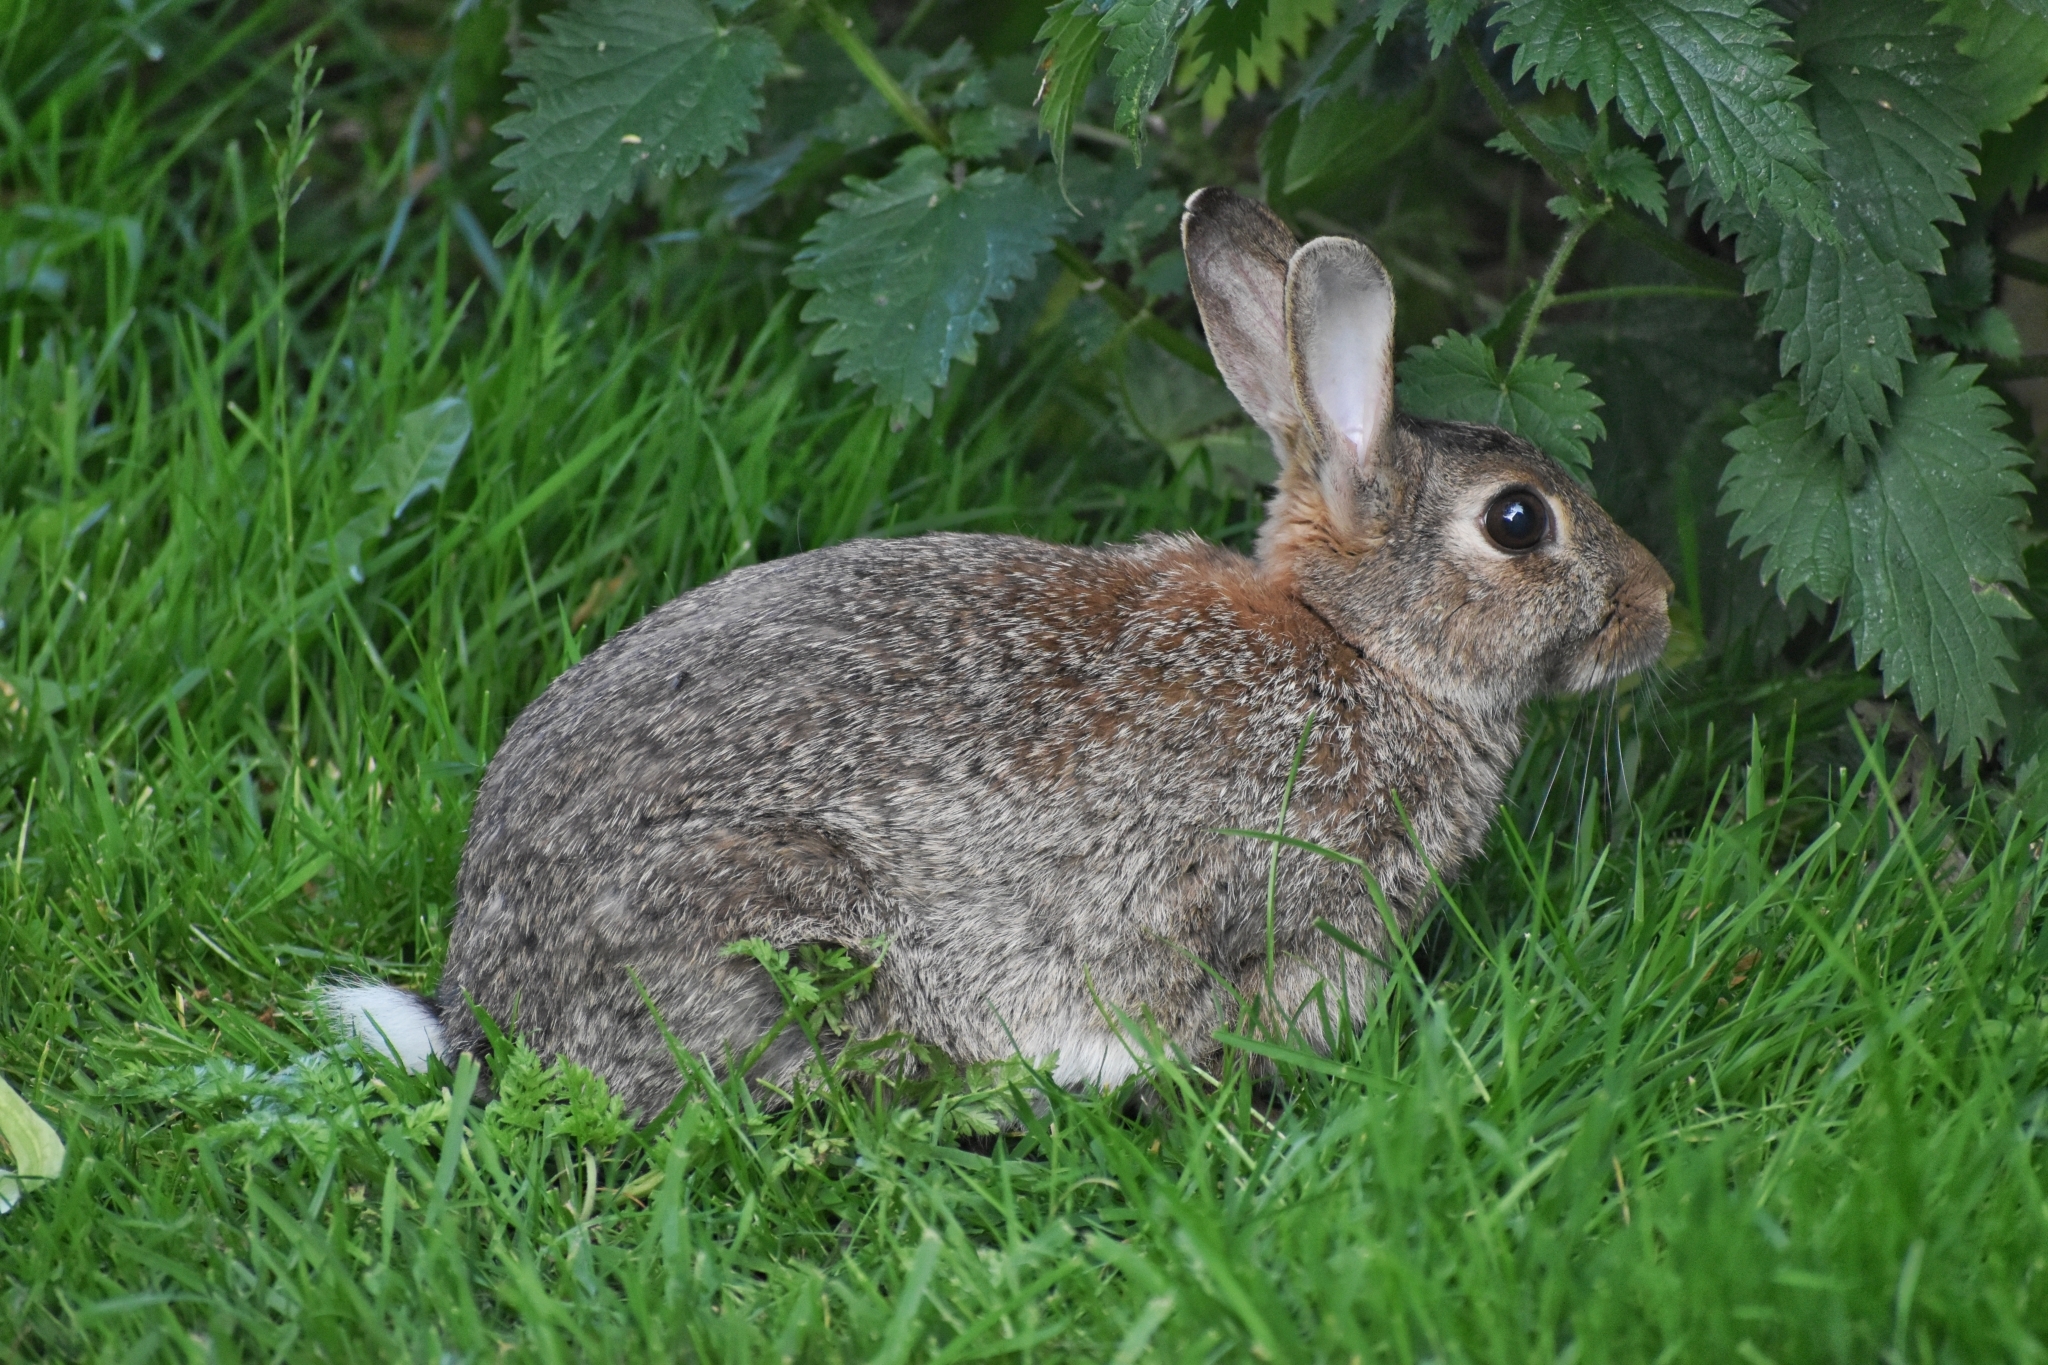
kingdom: Animalia
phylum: Chordata
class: Mammalia
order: Lagomorpha
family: Leporidae
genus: Oryctolagus
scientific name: Oryctolagus cuniculus
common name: European rabbit
